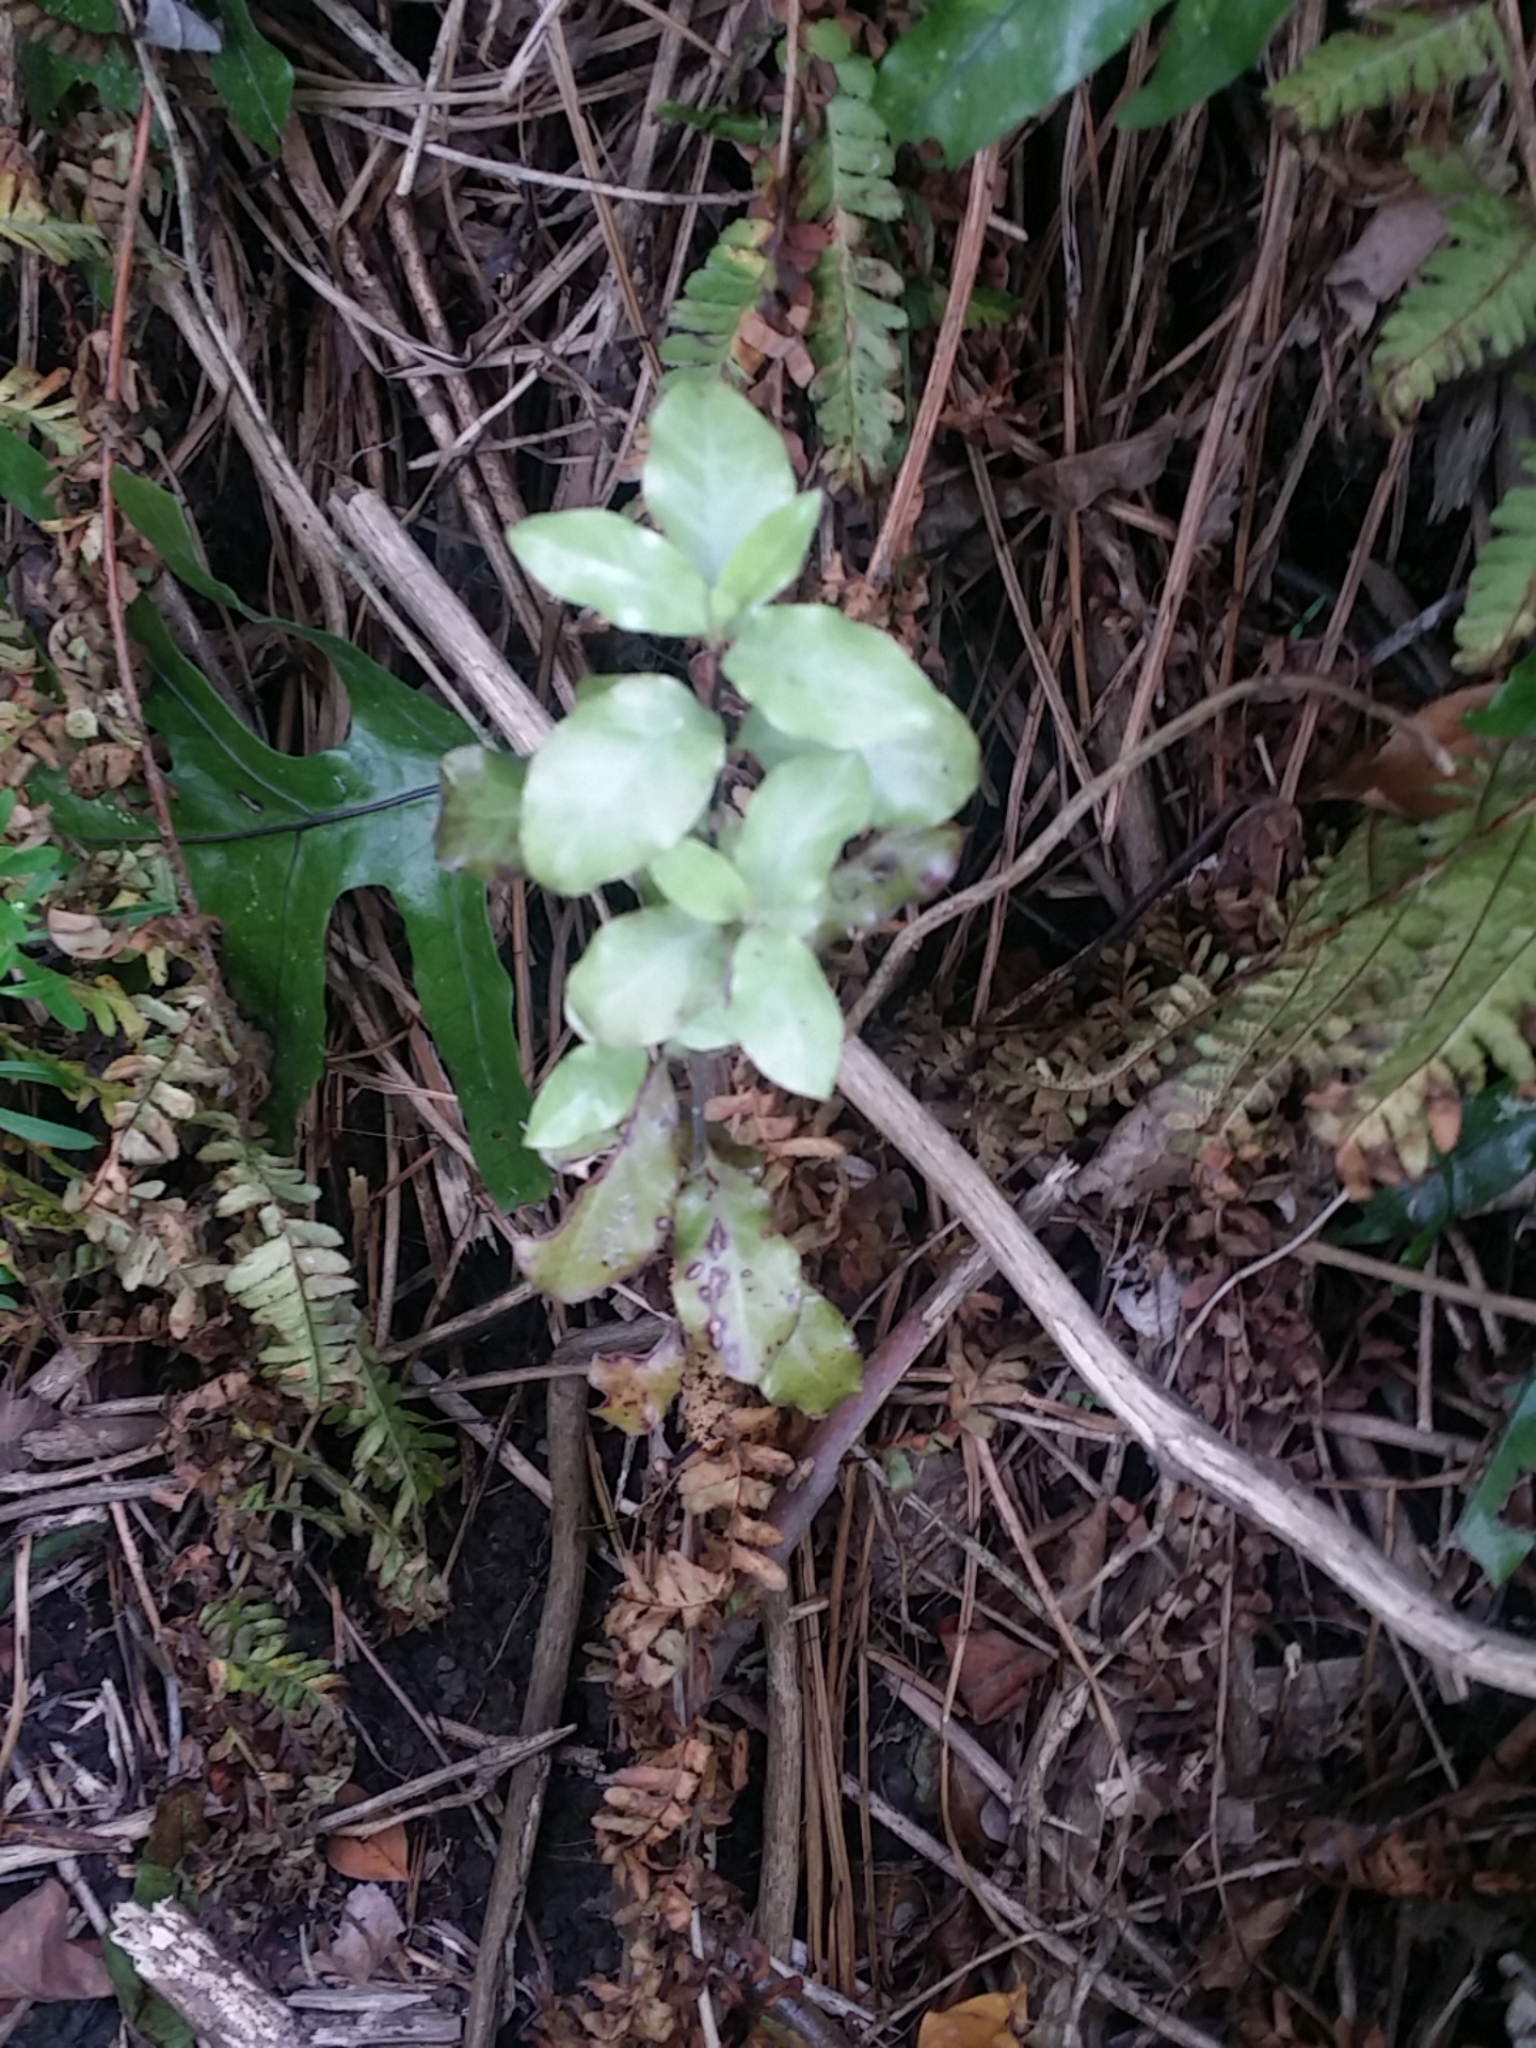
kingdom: Plantae
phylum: Tracheophyta
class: Magnoliopsida
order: Apiales
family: Pittosporaceae
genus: Pittosporum
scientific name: Pittosporum tenuifolium
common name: Kohuhu
